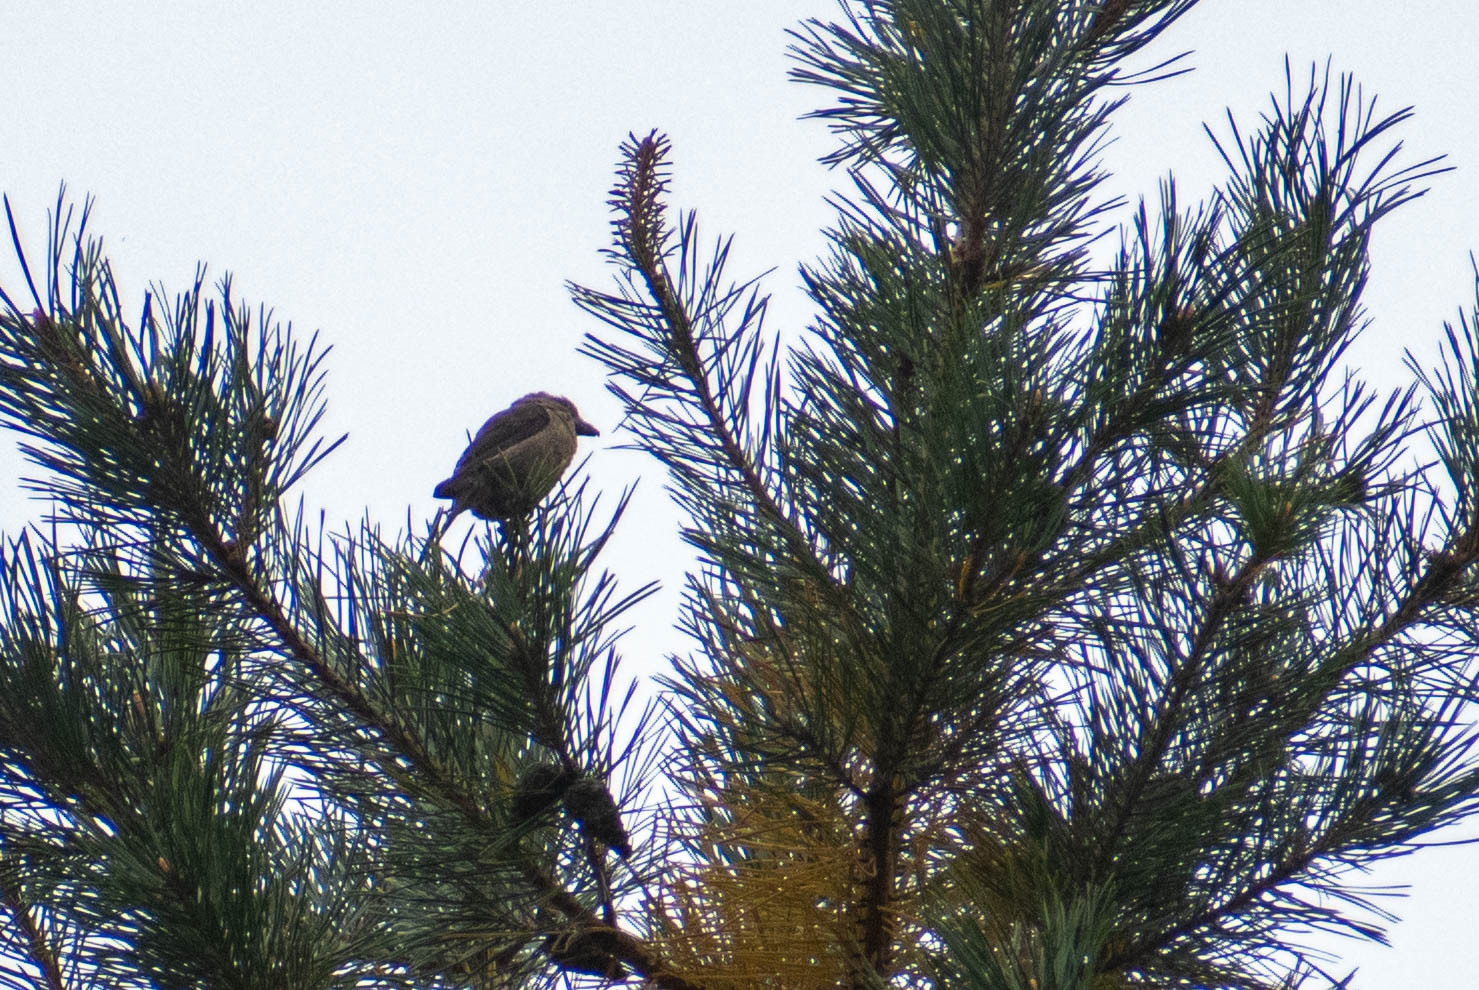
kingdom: Animalia
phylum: Chordata
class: Aves
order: Passeriformes
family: Fringillidae
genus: Loxia
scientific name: Loxia curvirostra
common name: Red crossbill
